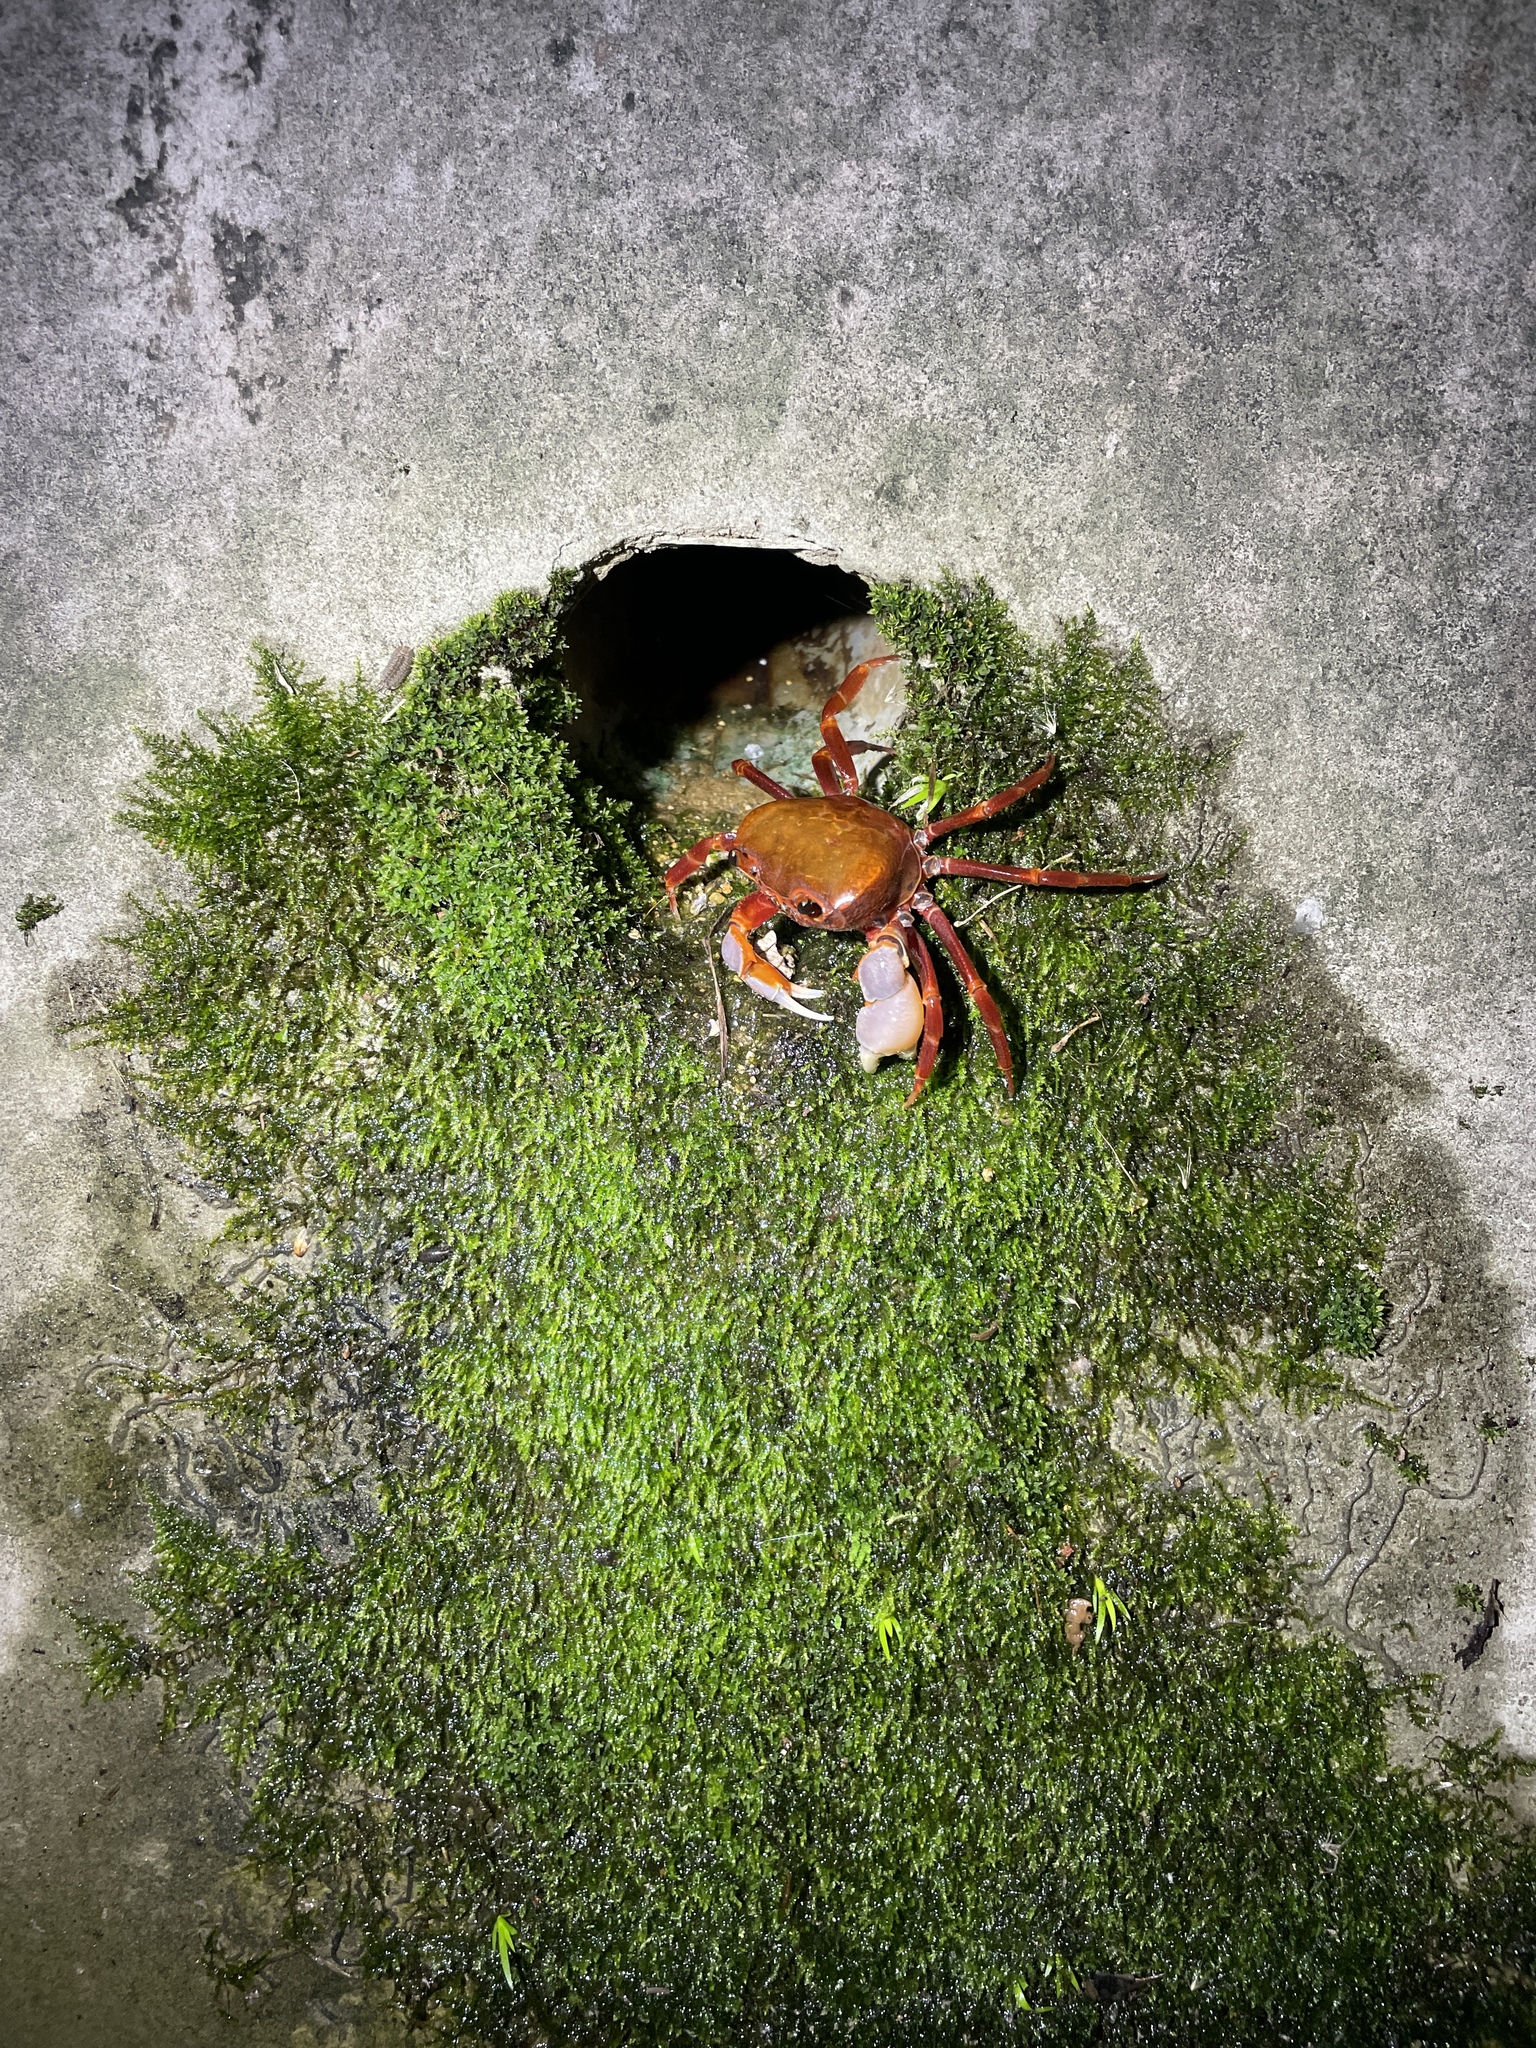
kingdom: Animalia
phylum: Arthropoda
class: Malacostraca
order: Decapoda
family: Potamidae
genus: Nanhaipotamon
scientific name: Nanhaipotamon hongkongense
